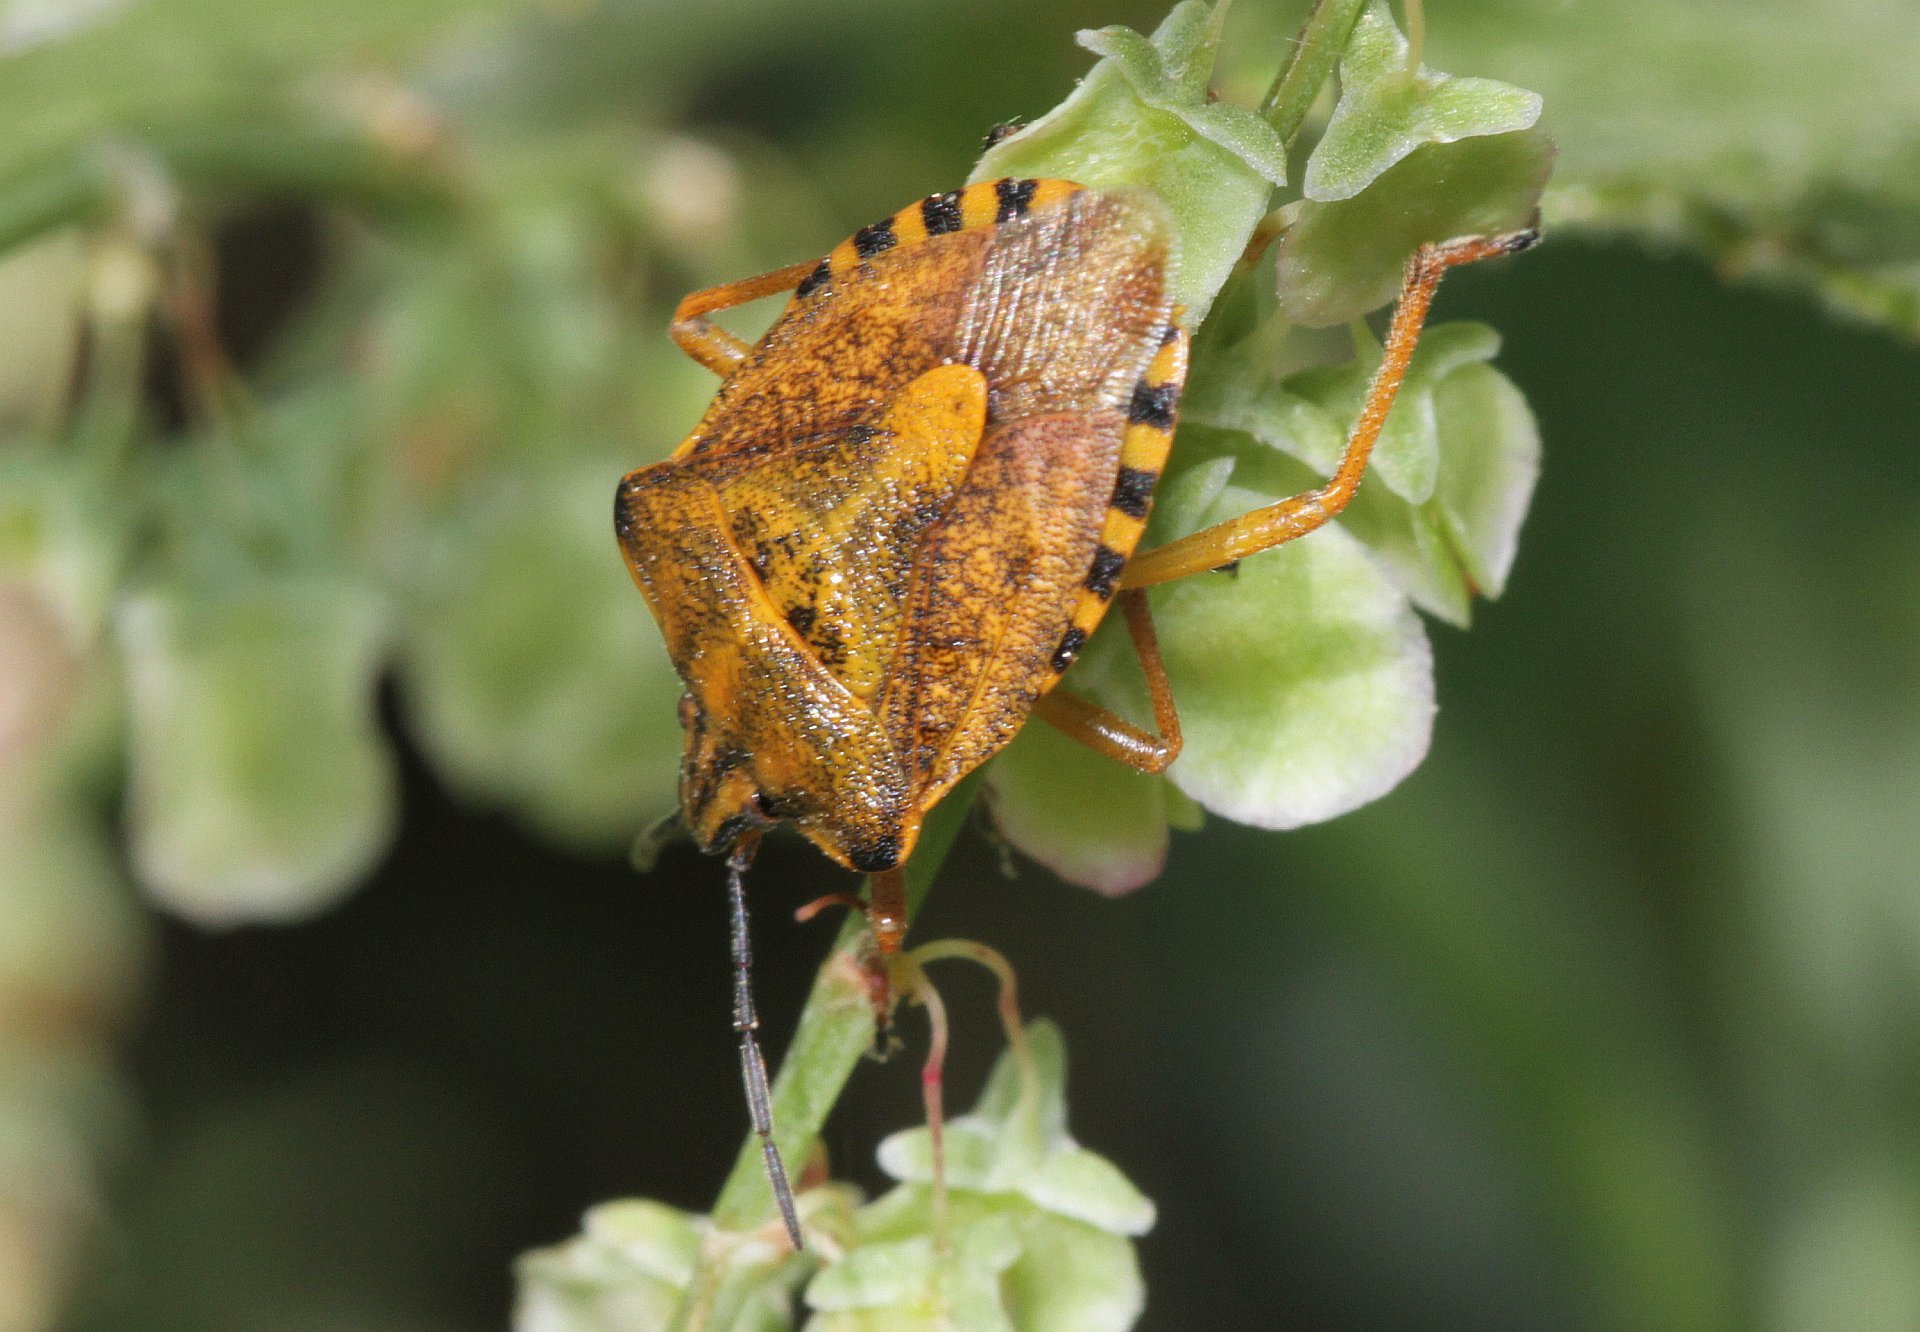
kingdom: Animalia
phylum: Arthropoda
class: Insecta
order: Hemiptera
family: Pentatomidae
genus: Carpocoris
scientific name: Carpocoris purpureipennis
